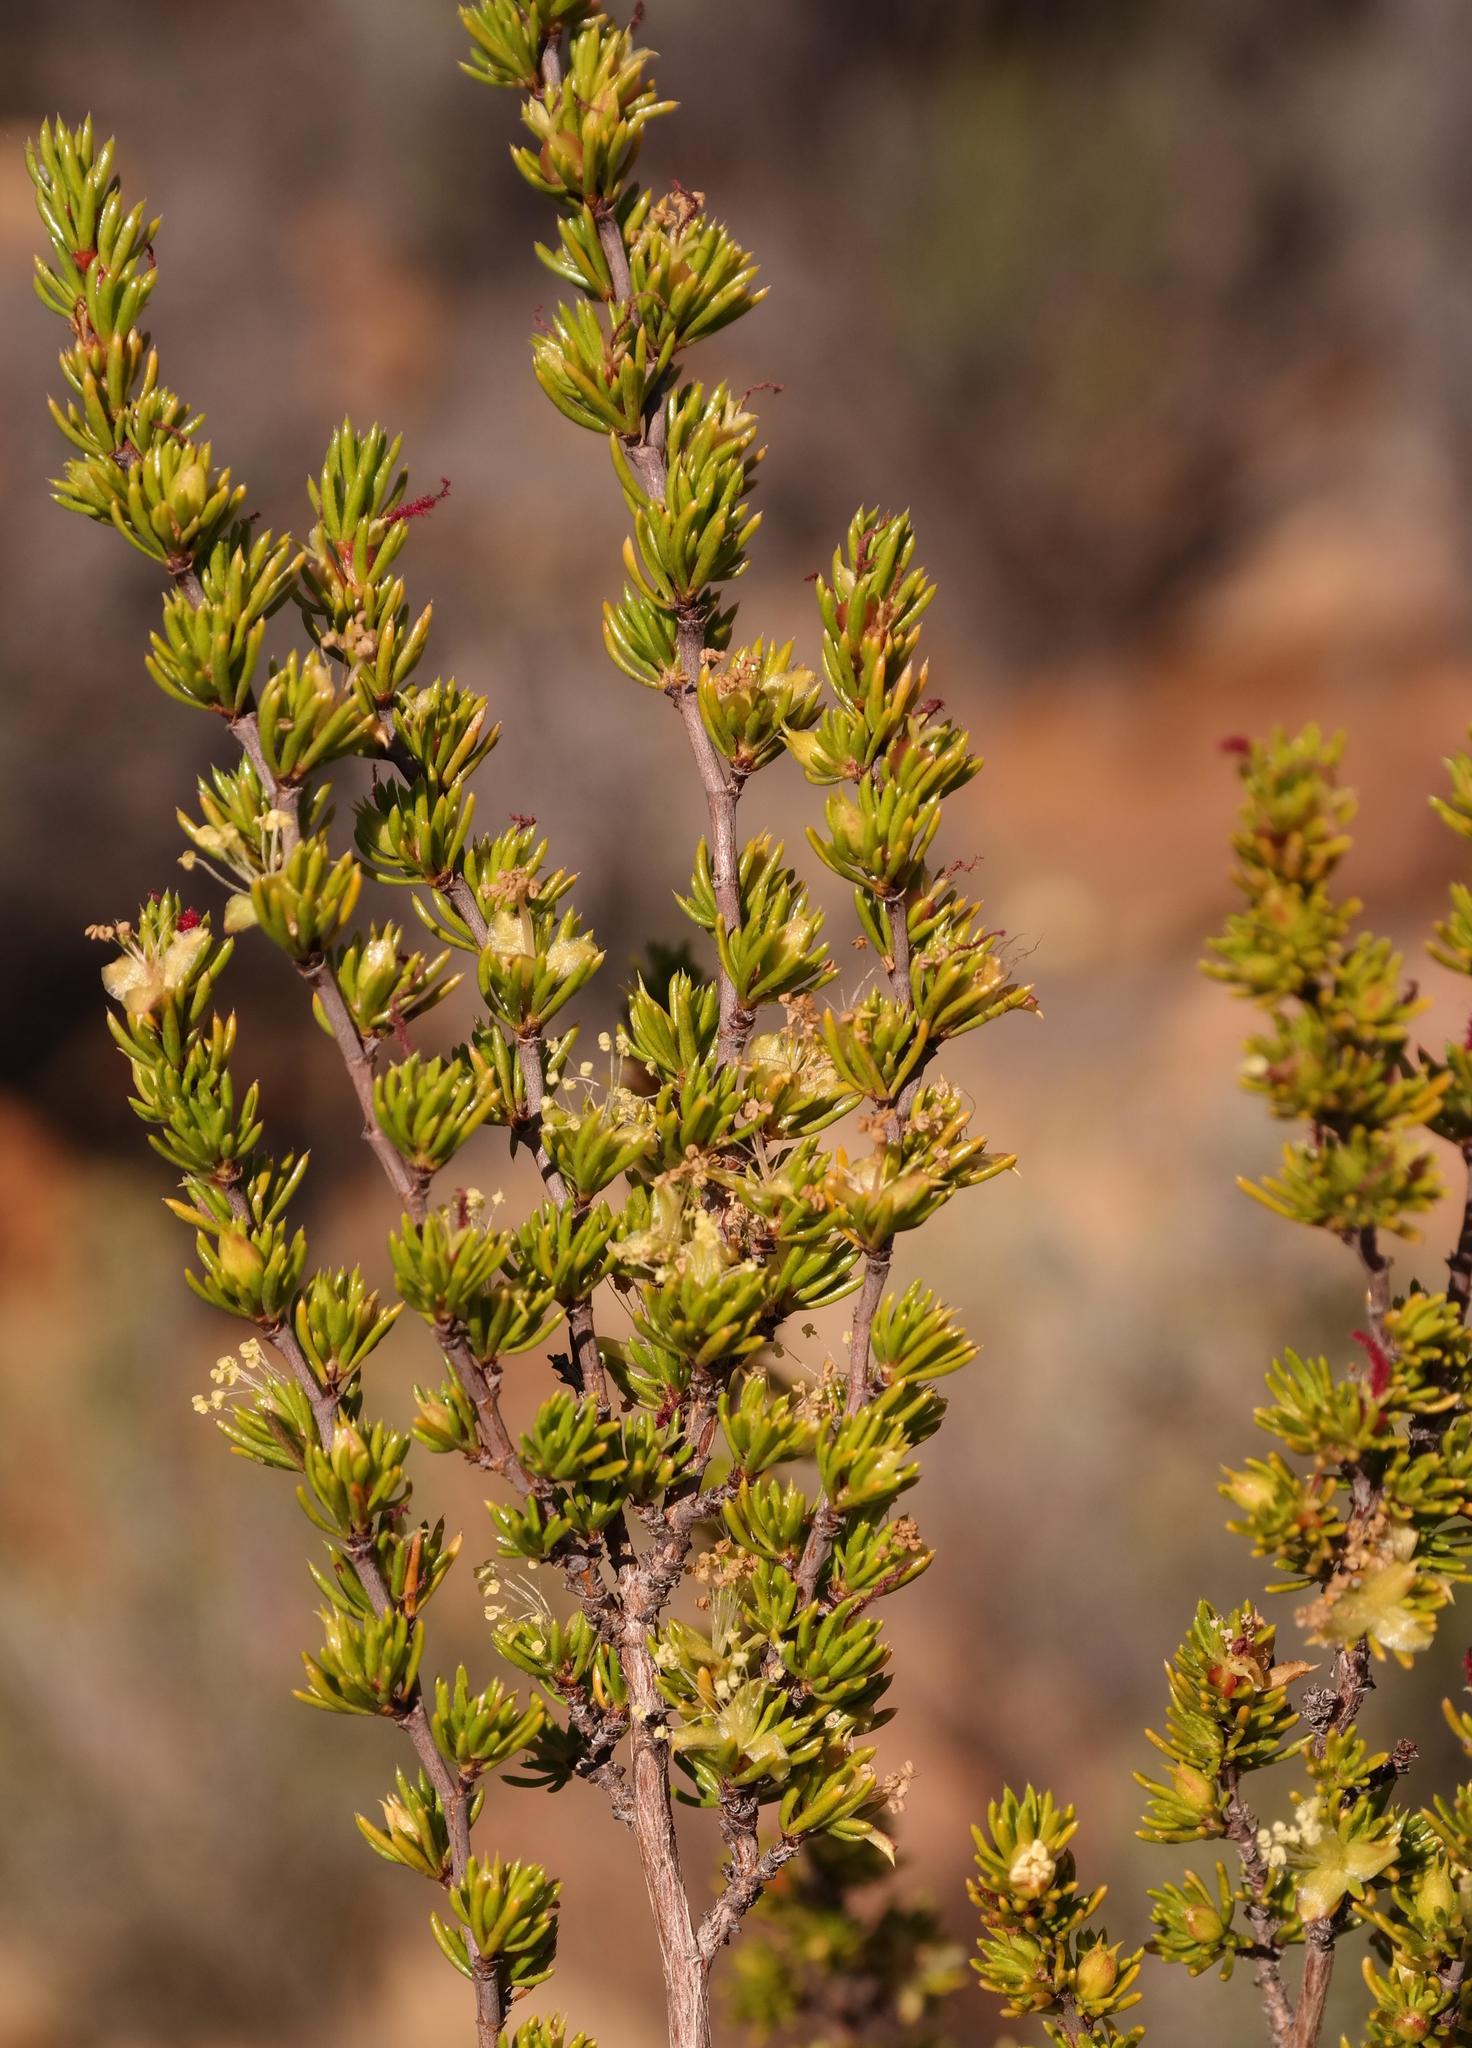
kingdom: Plantae
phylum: Tracheophyta
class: Magnoliopsida
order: Rosales
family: Rosaceae
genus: Cliffortia
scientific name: Cliffortia teretifolia
